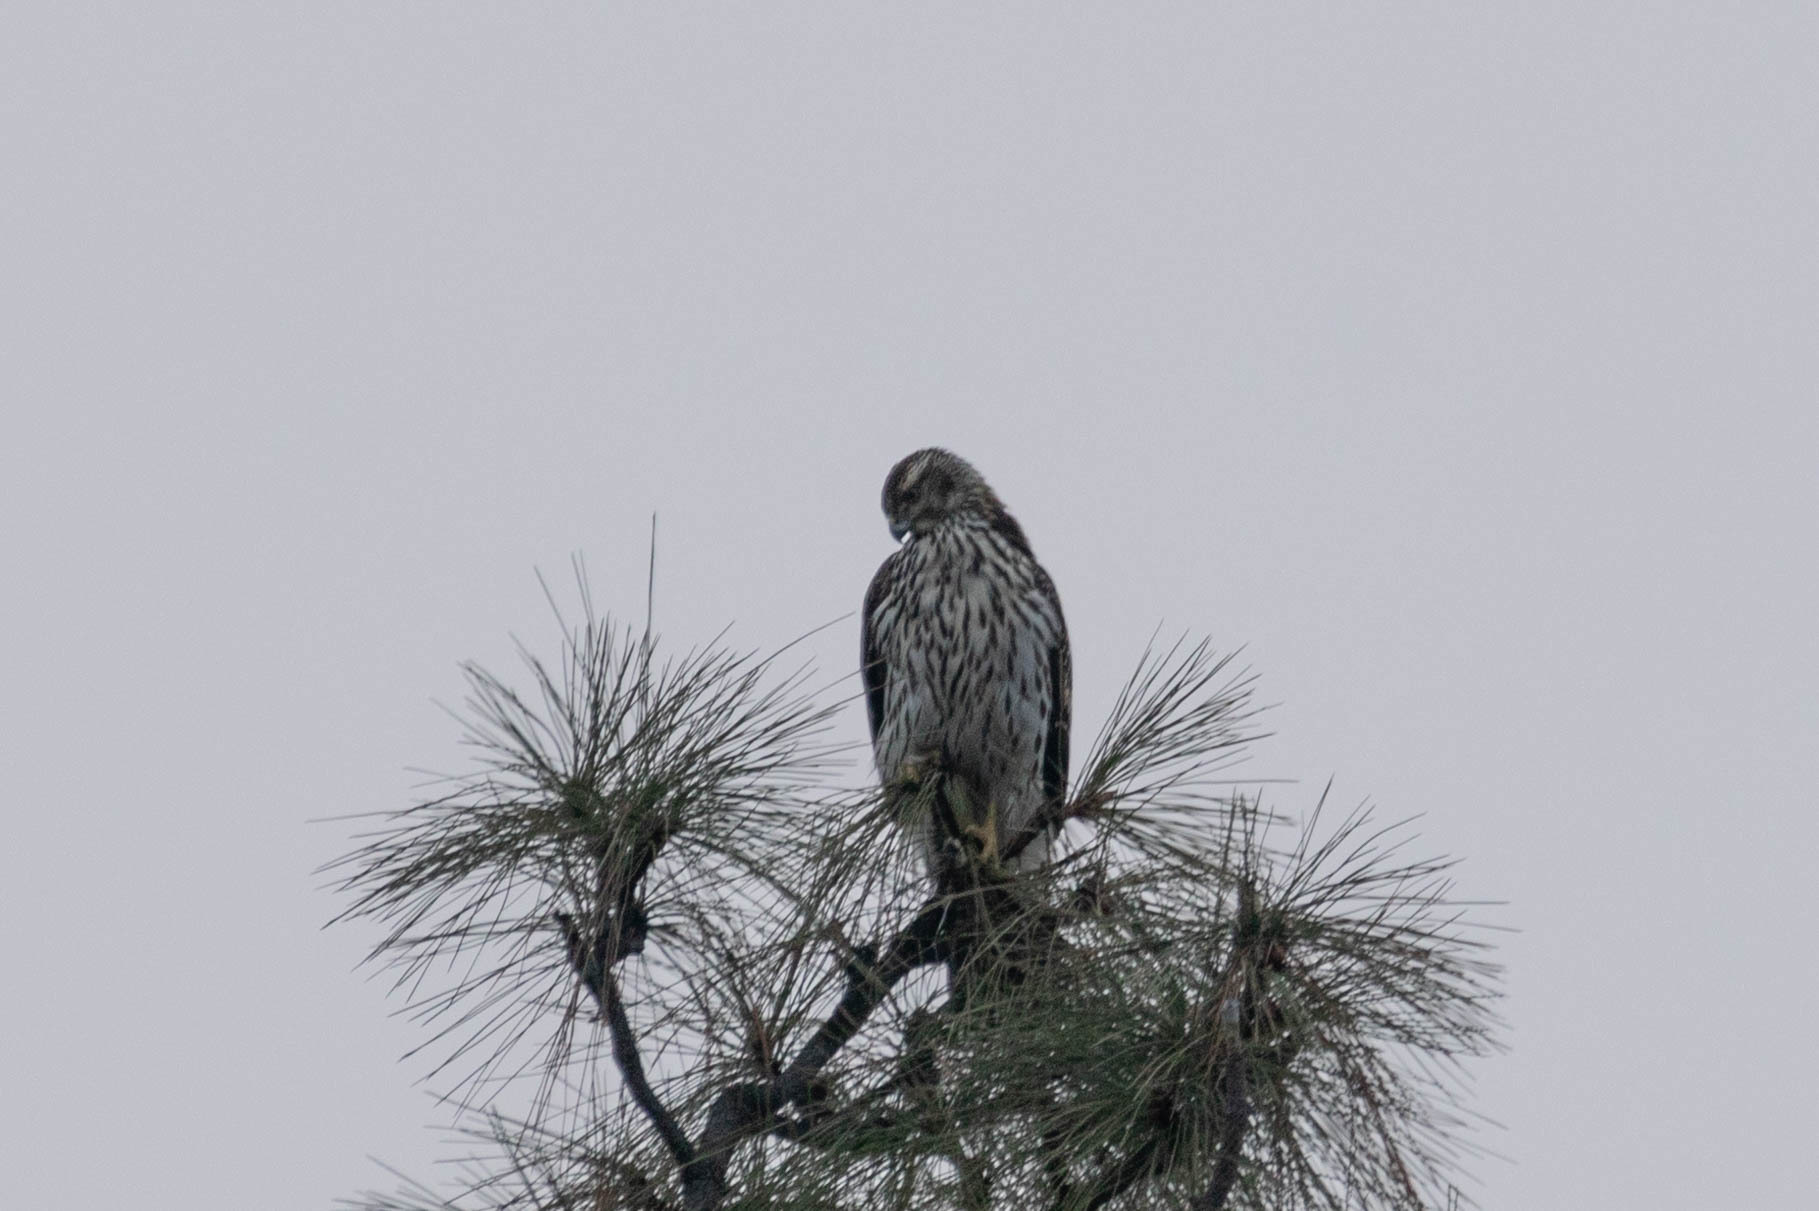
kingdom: Animalia
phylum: Chordata
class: Aves
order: Accipitriformes
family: Accipitridae
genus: Accipiter
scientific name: Accipiter gentilis
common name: Northern goshawk
